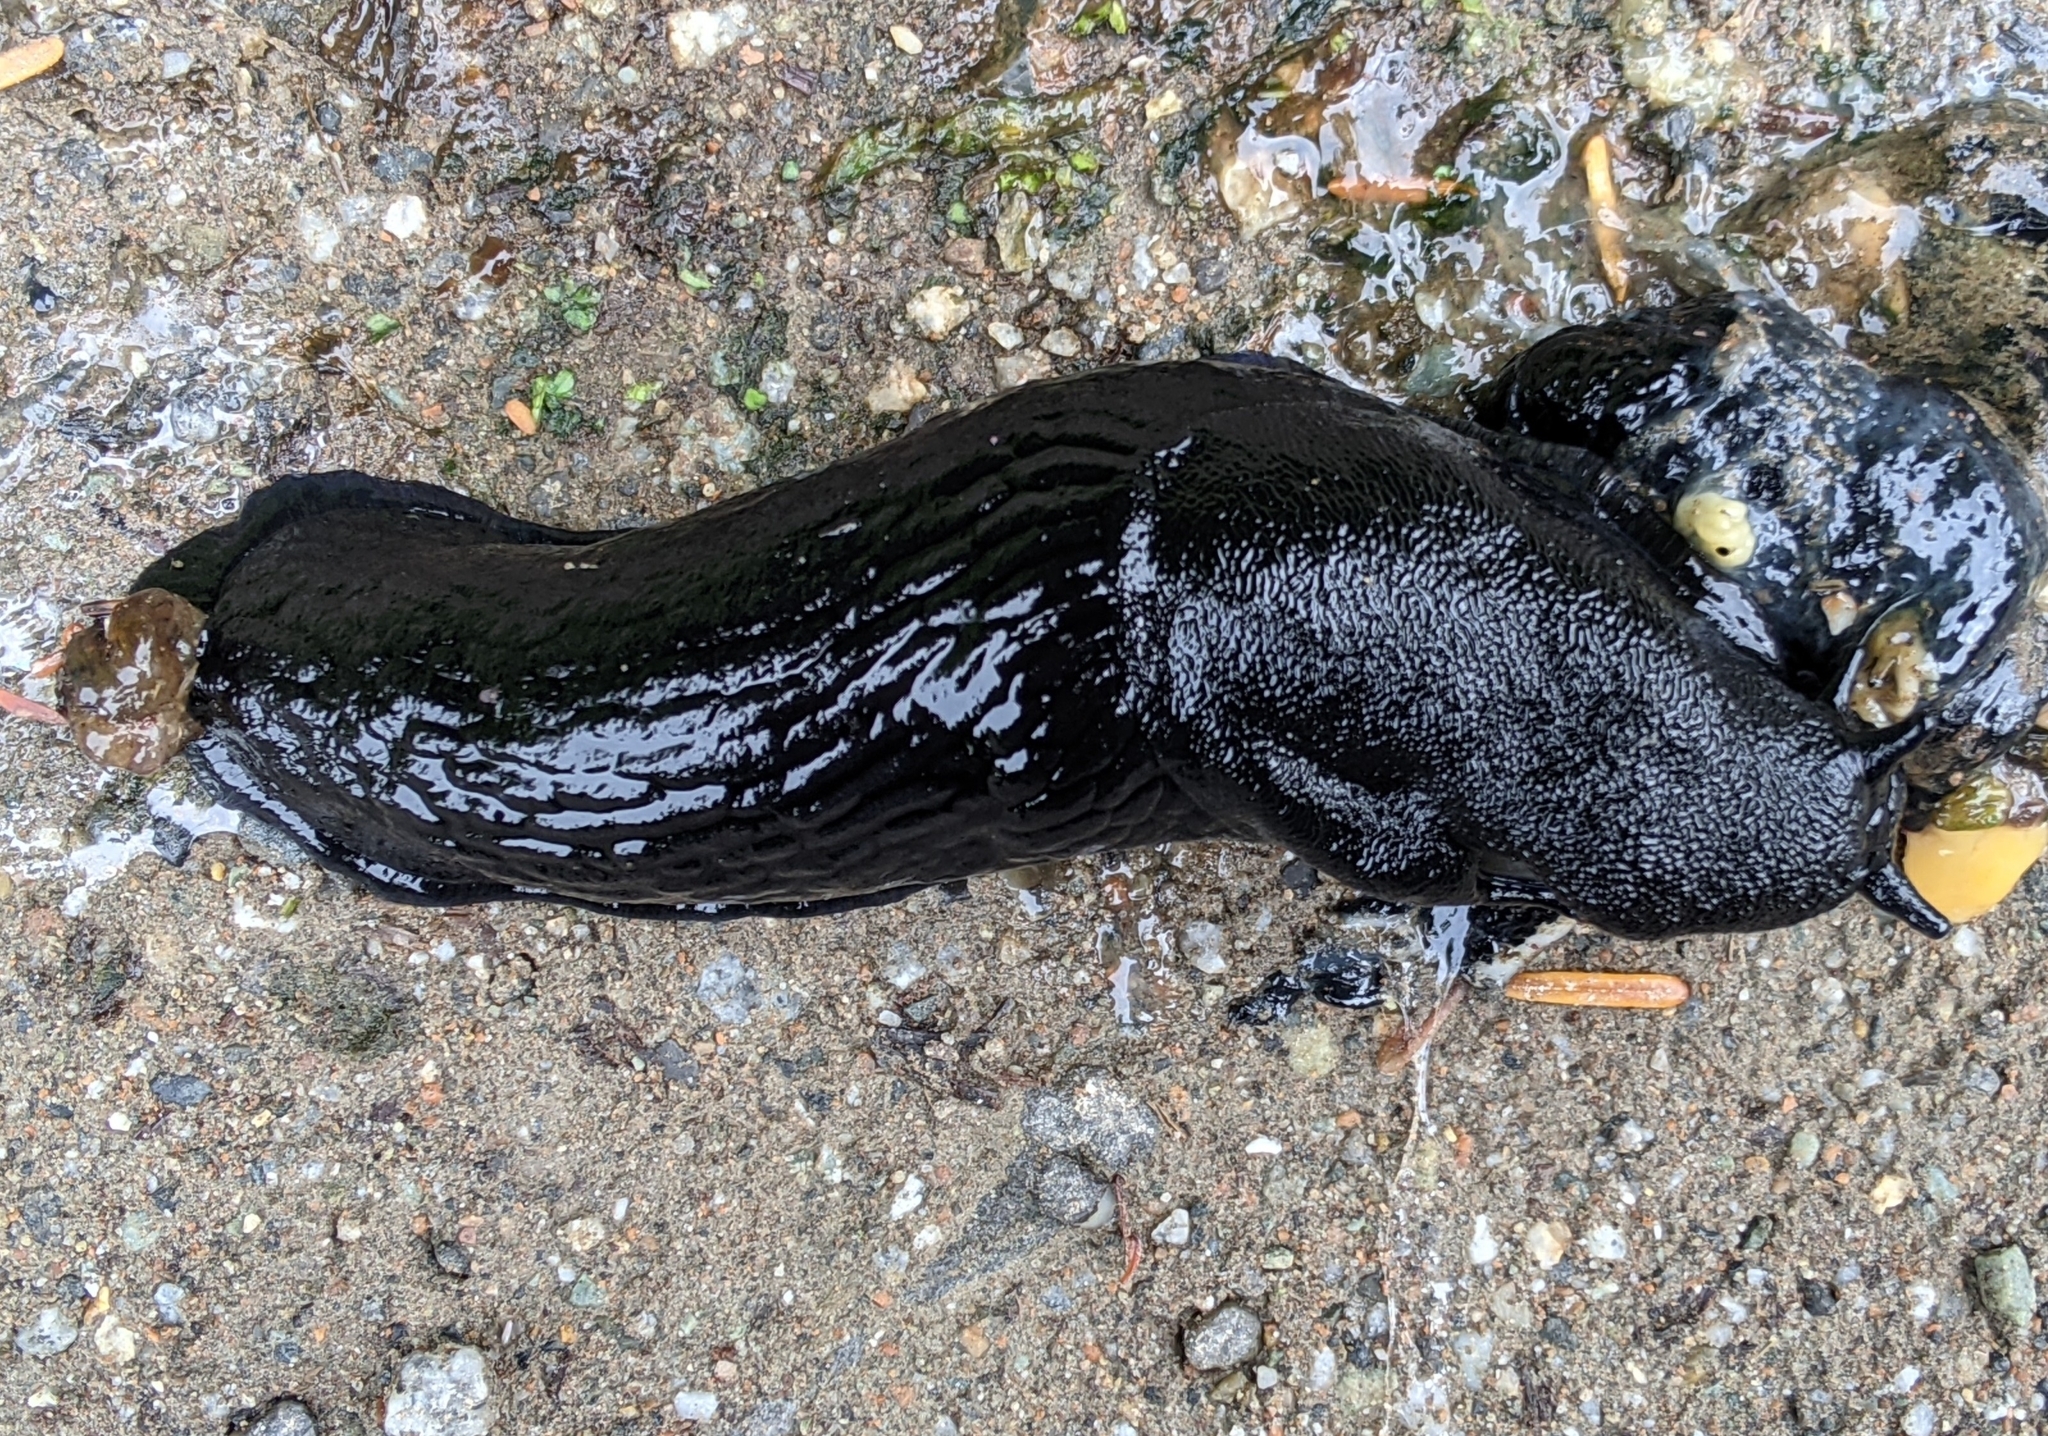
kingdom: Animalia
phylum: Mollusca
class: Gastropoda
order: Stylommatophora
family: Arionidae
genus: Arion
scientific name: Arion
